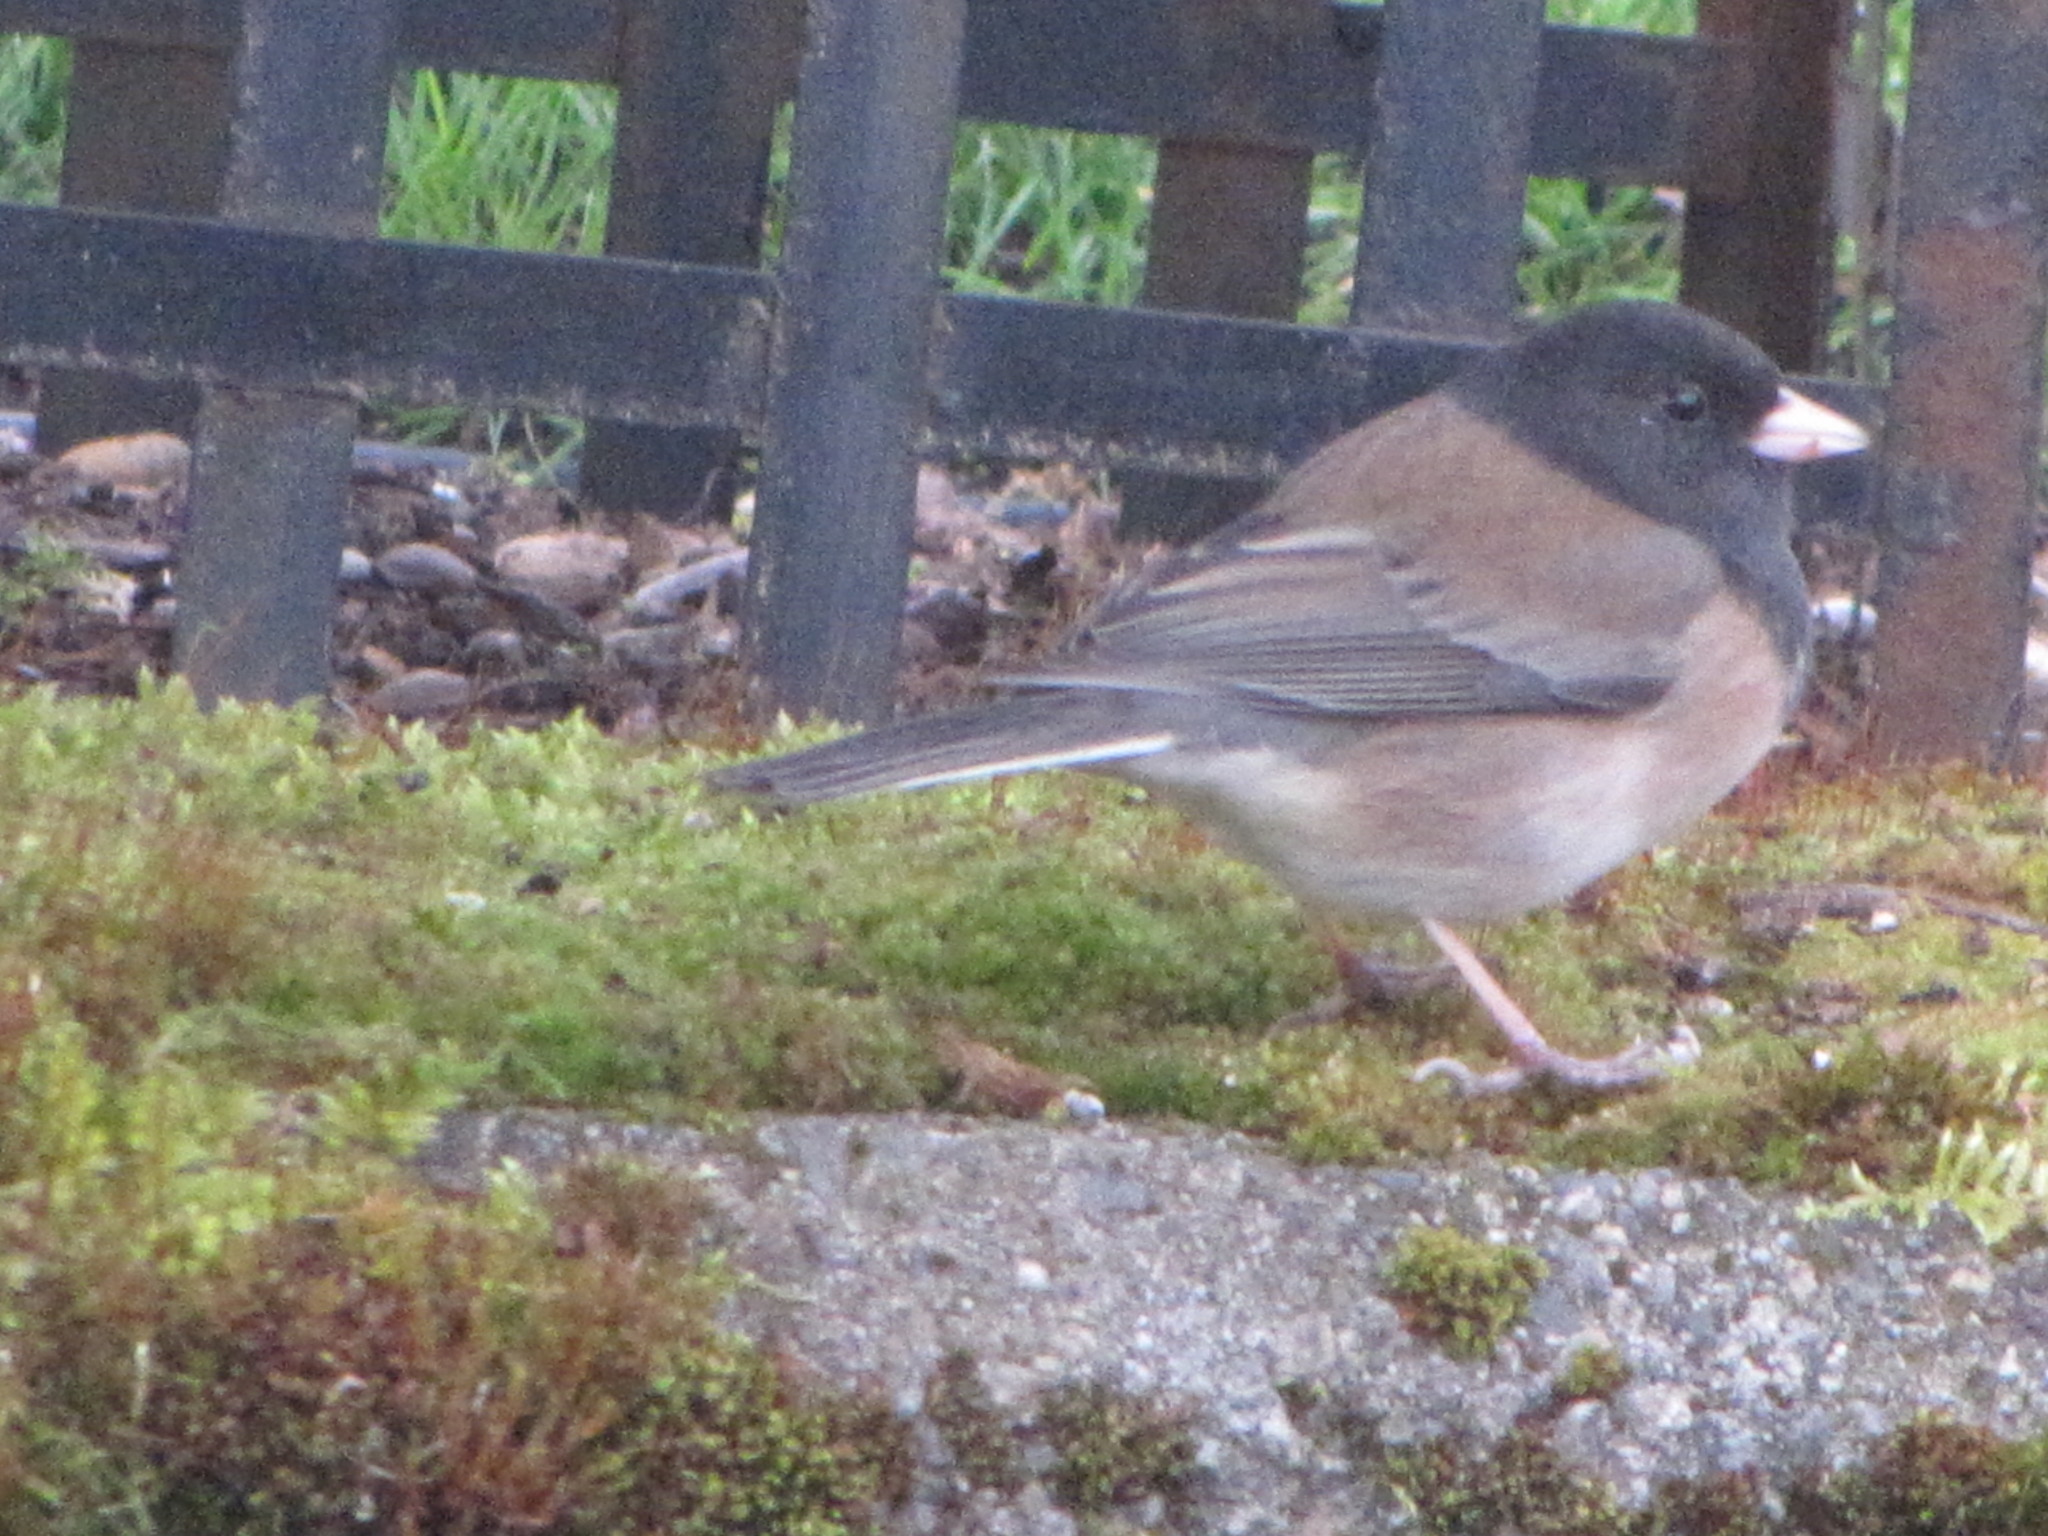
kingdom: Animalia
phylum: Chordata
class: Aves
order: Passeriformes
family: Passerellidae
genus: Junco
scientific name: Junco hyemalis
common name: Dark-eyed junco
